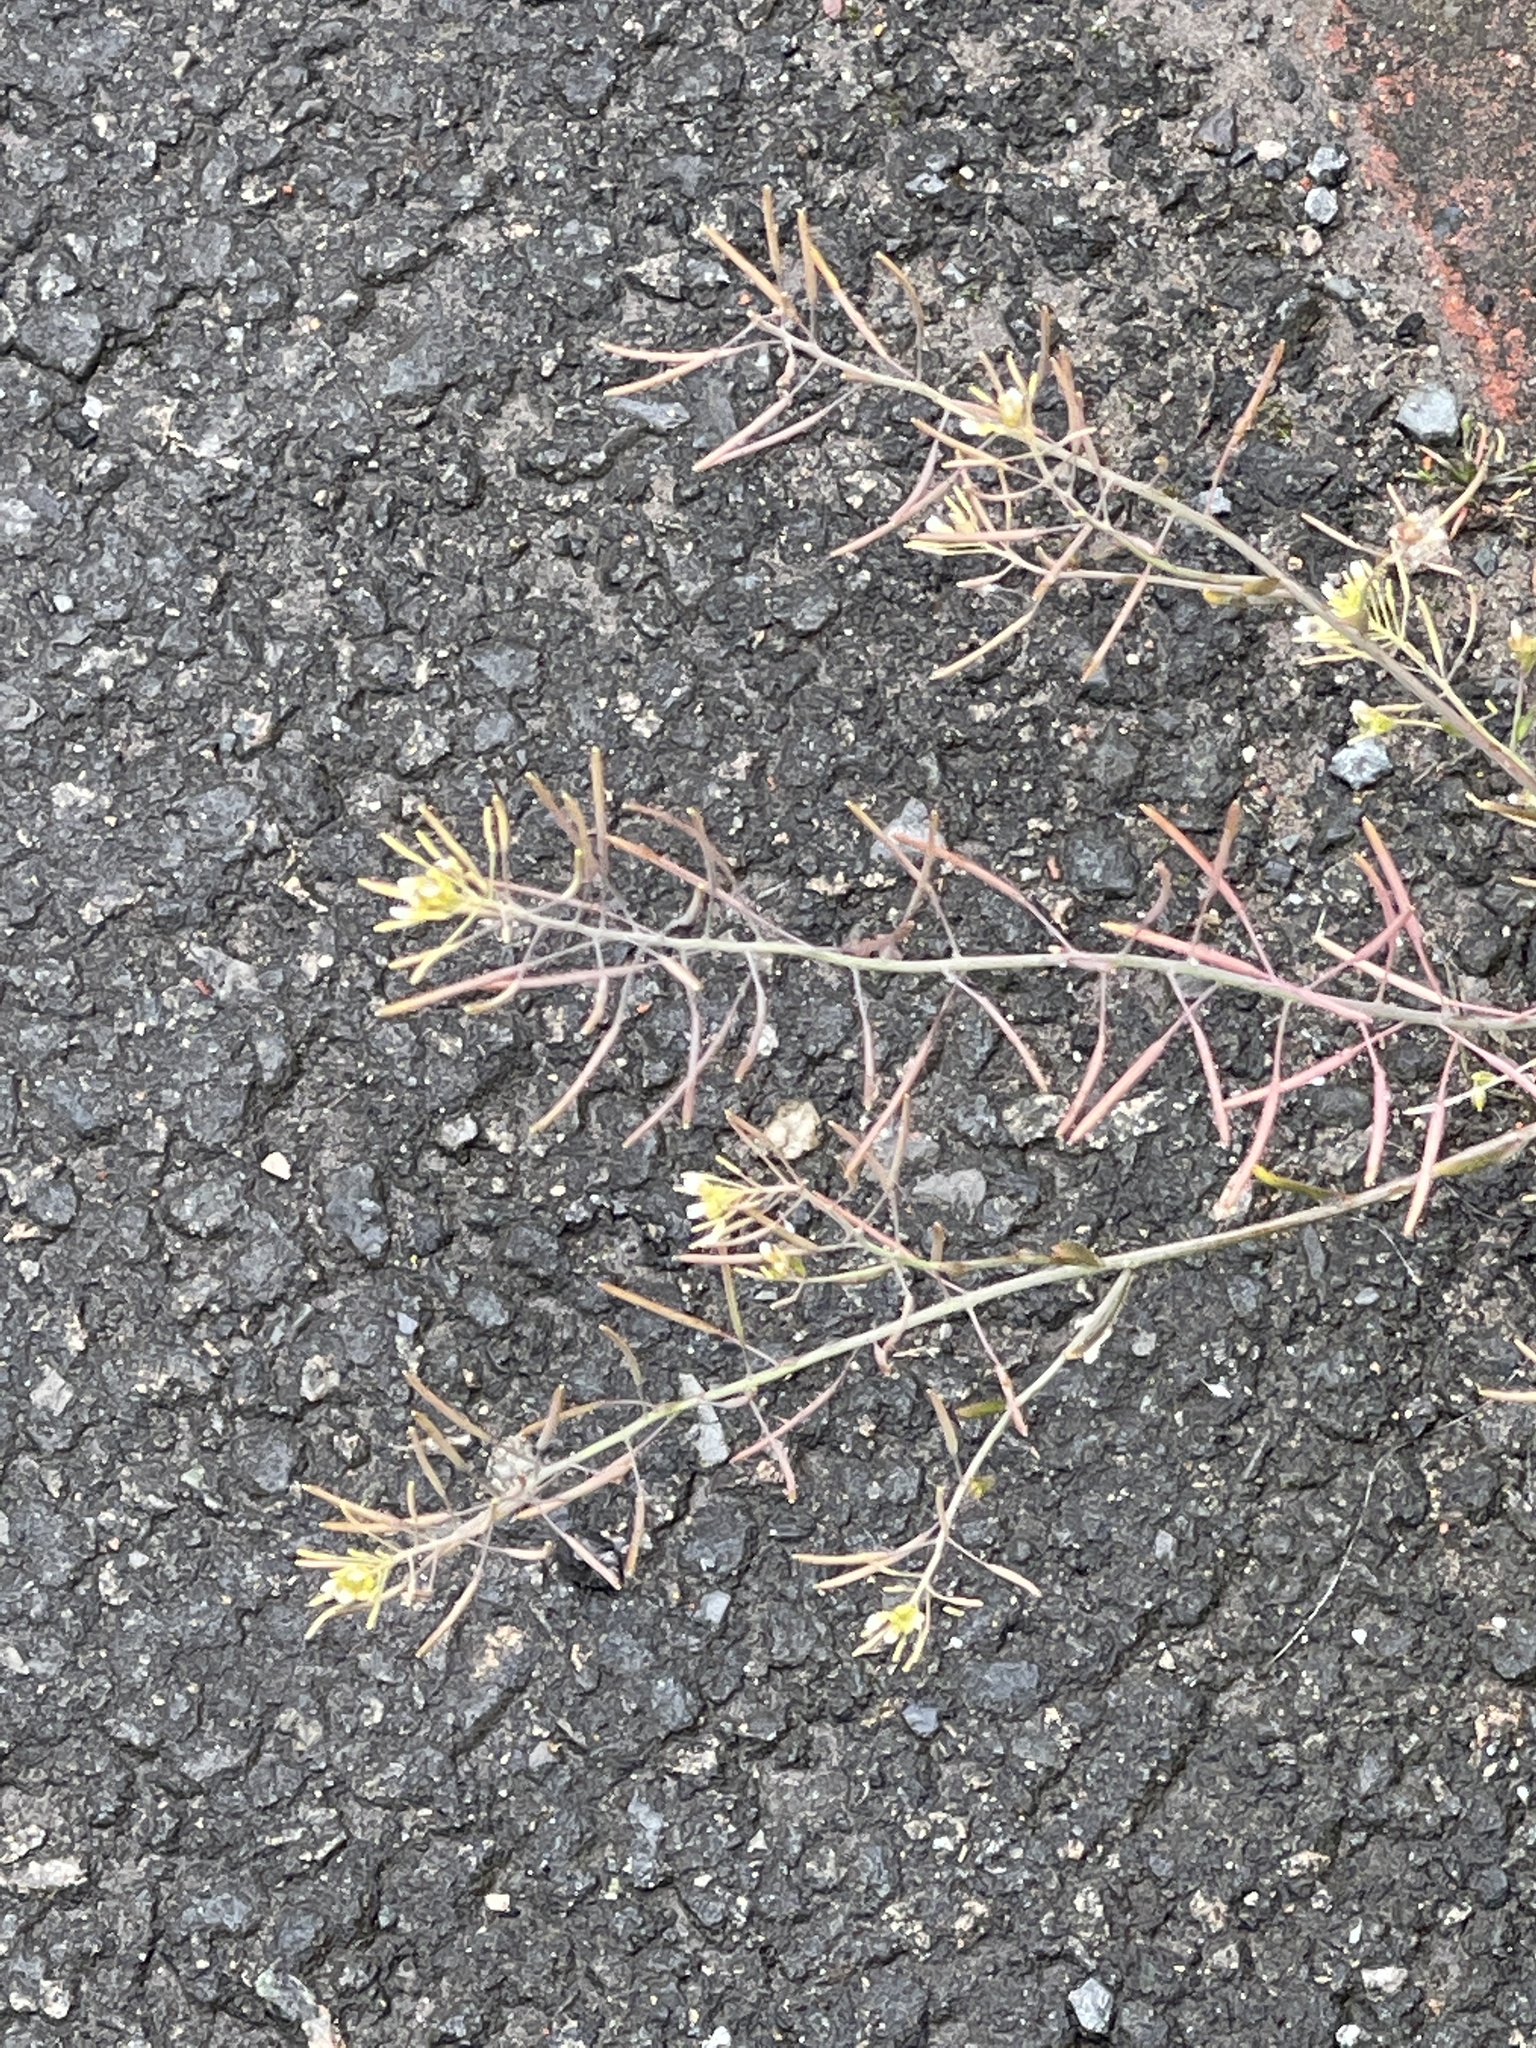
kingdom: Plantae
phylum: Tracheophyta
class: Magnoliopsida
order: Brassicales
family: Brassicaceae
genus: Arabidopsis
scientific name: Arabidopsis thaliana
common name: Thale cress
